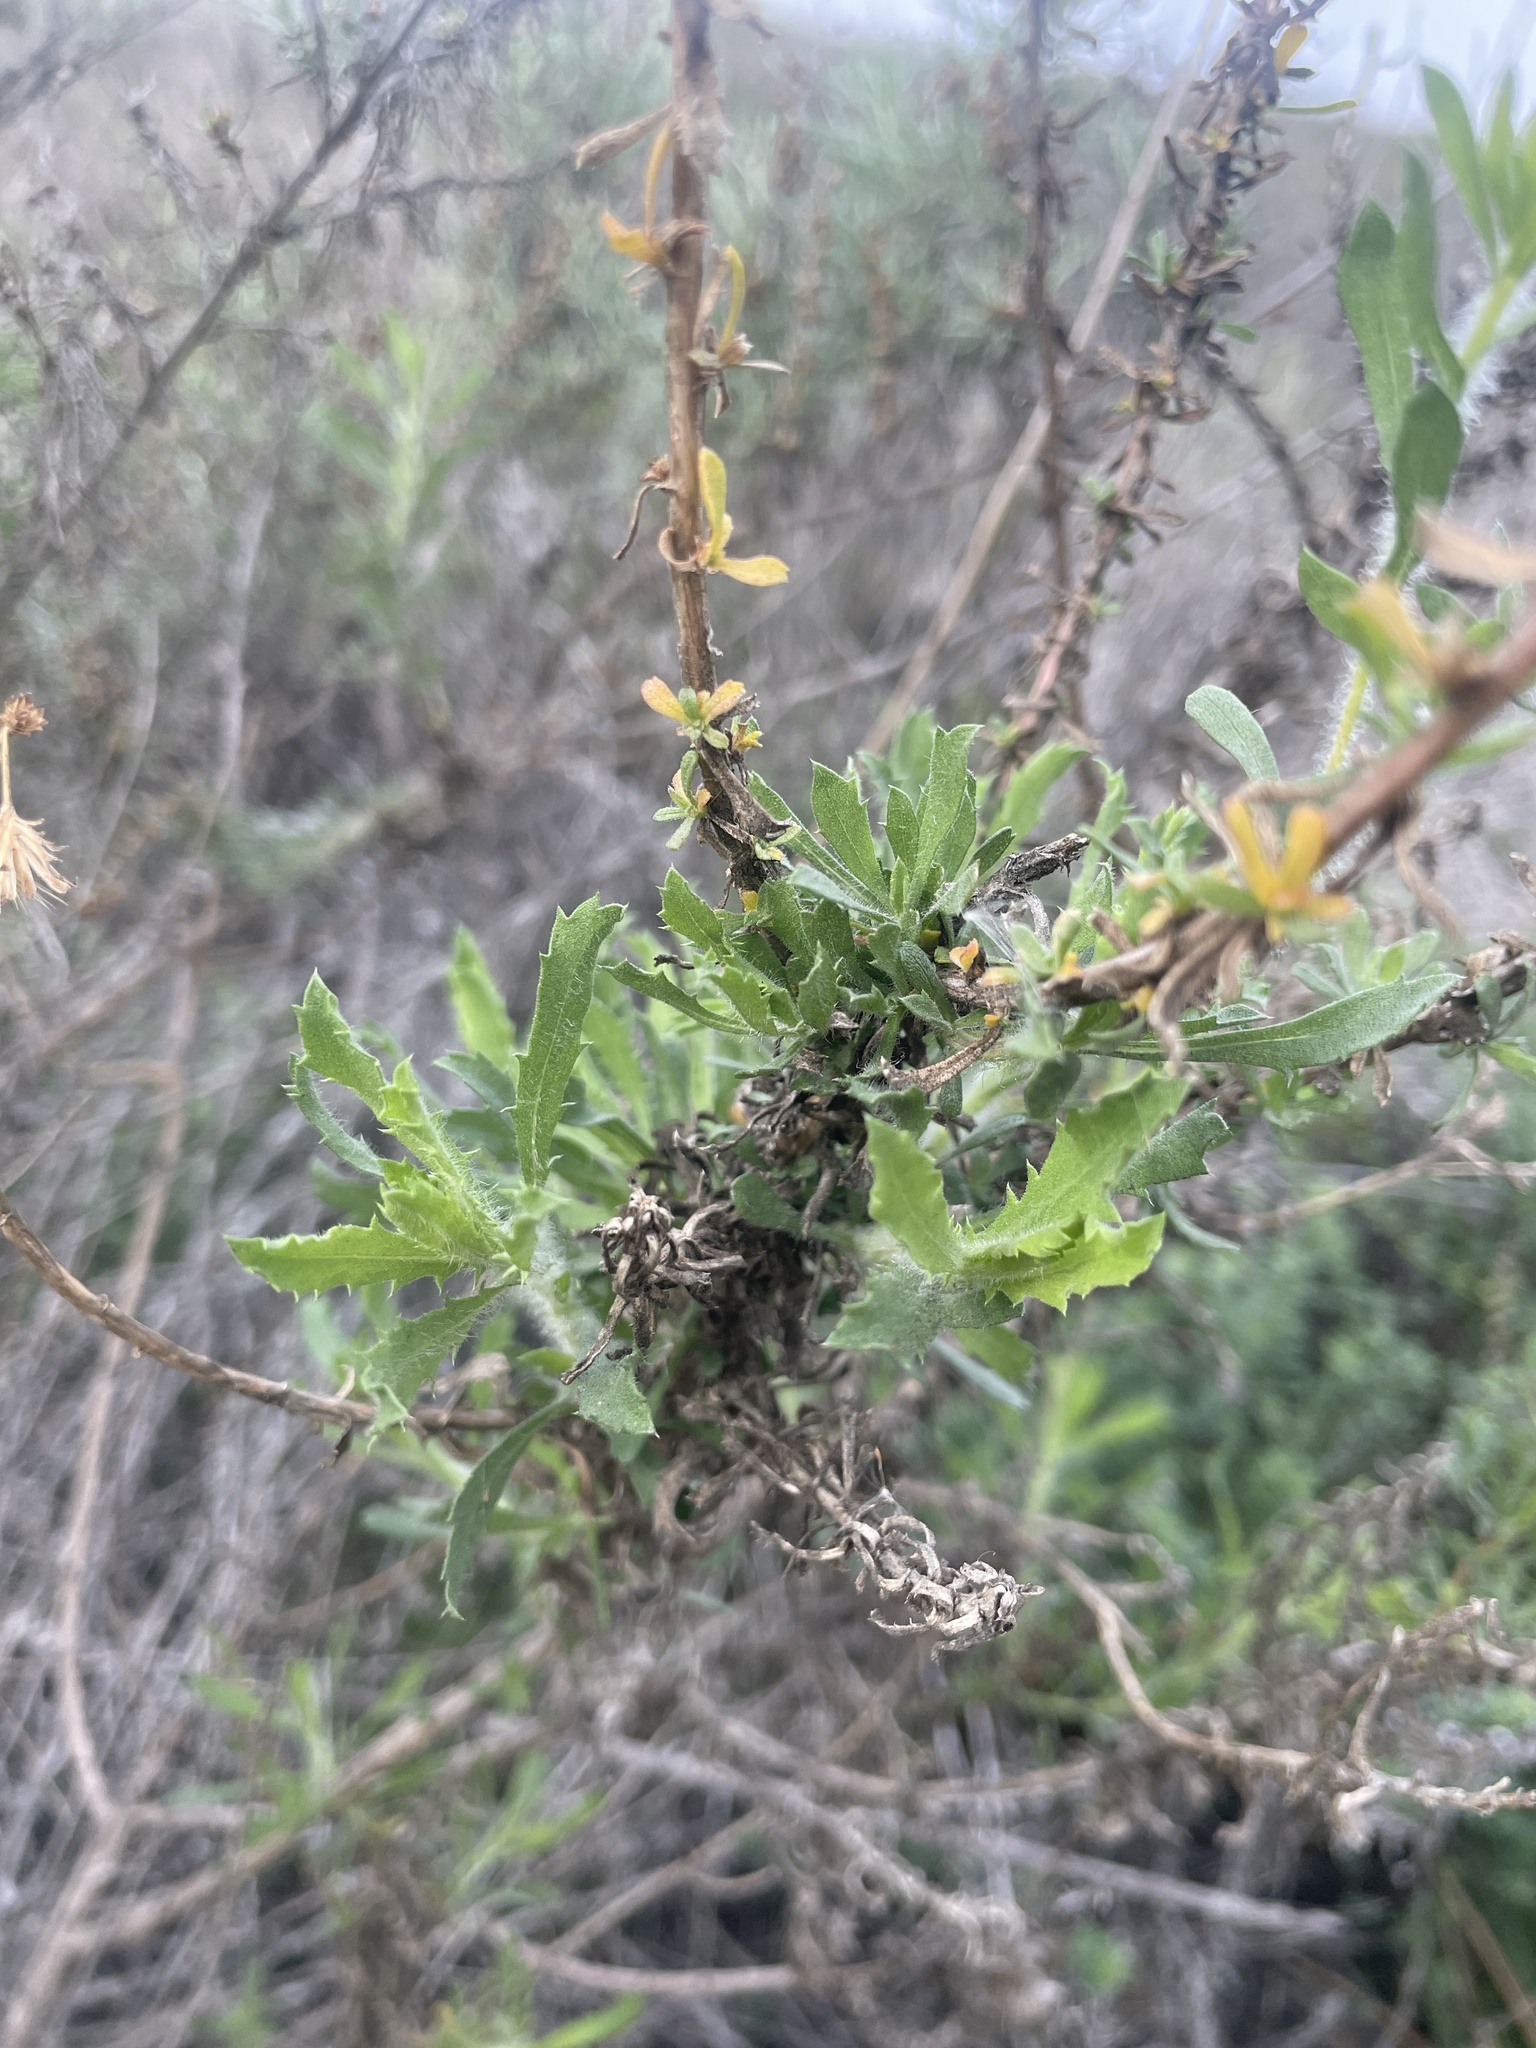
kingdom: Plantae
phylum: Tracheophyta
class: Magnoliopsida
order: Asterales
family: Asteraceae
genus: Isocoma
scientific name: Isocoma menziesii
